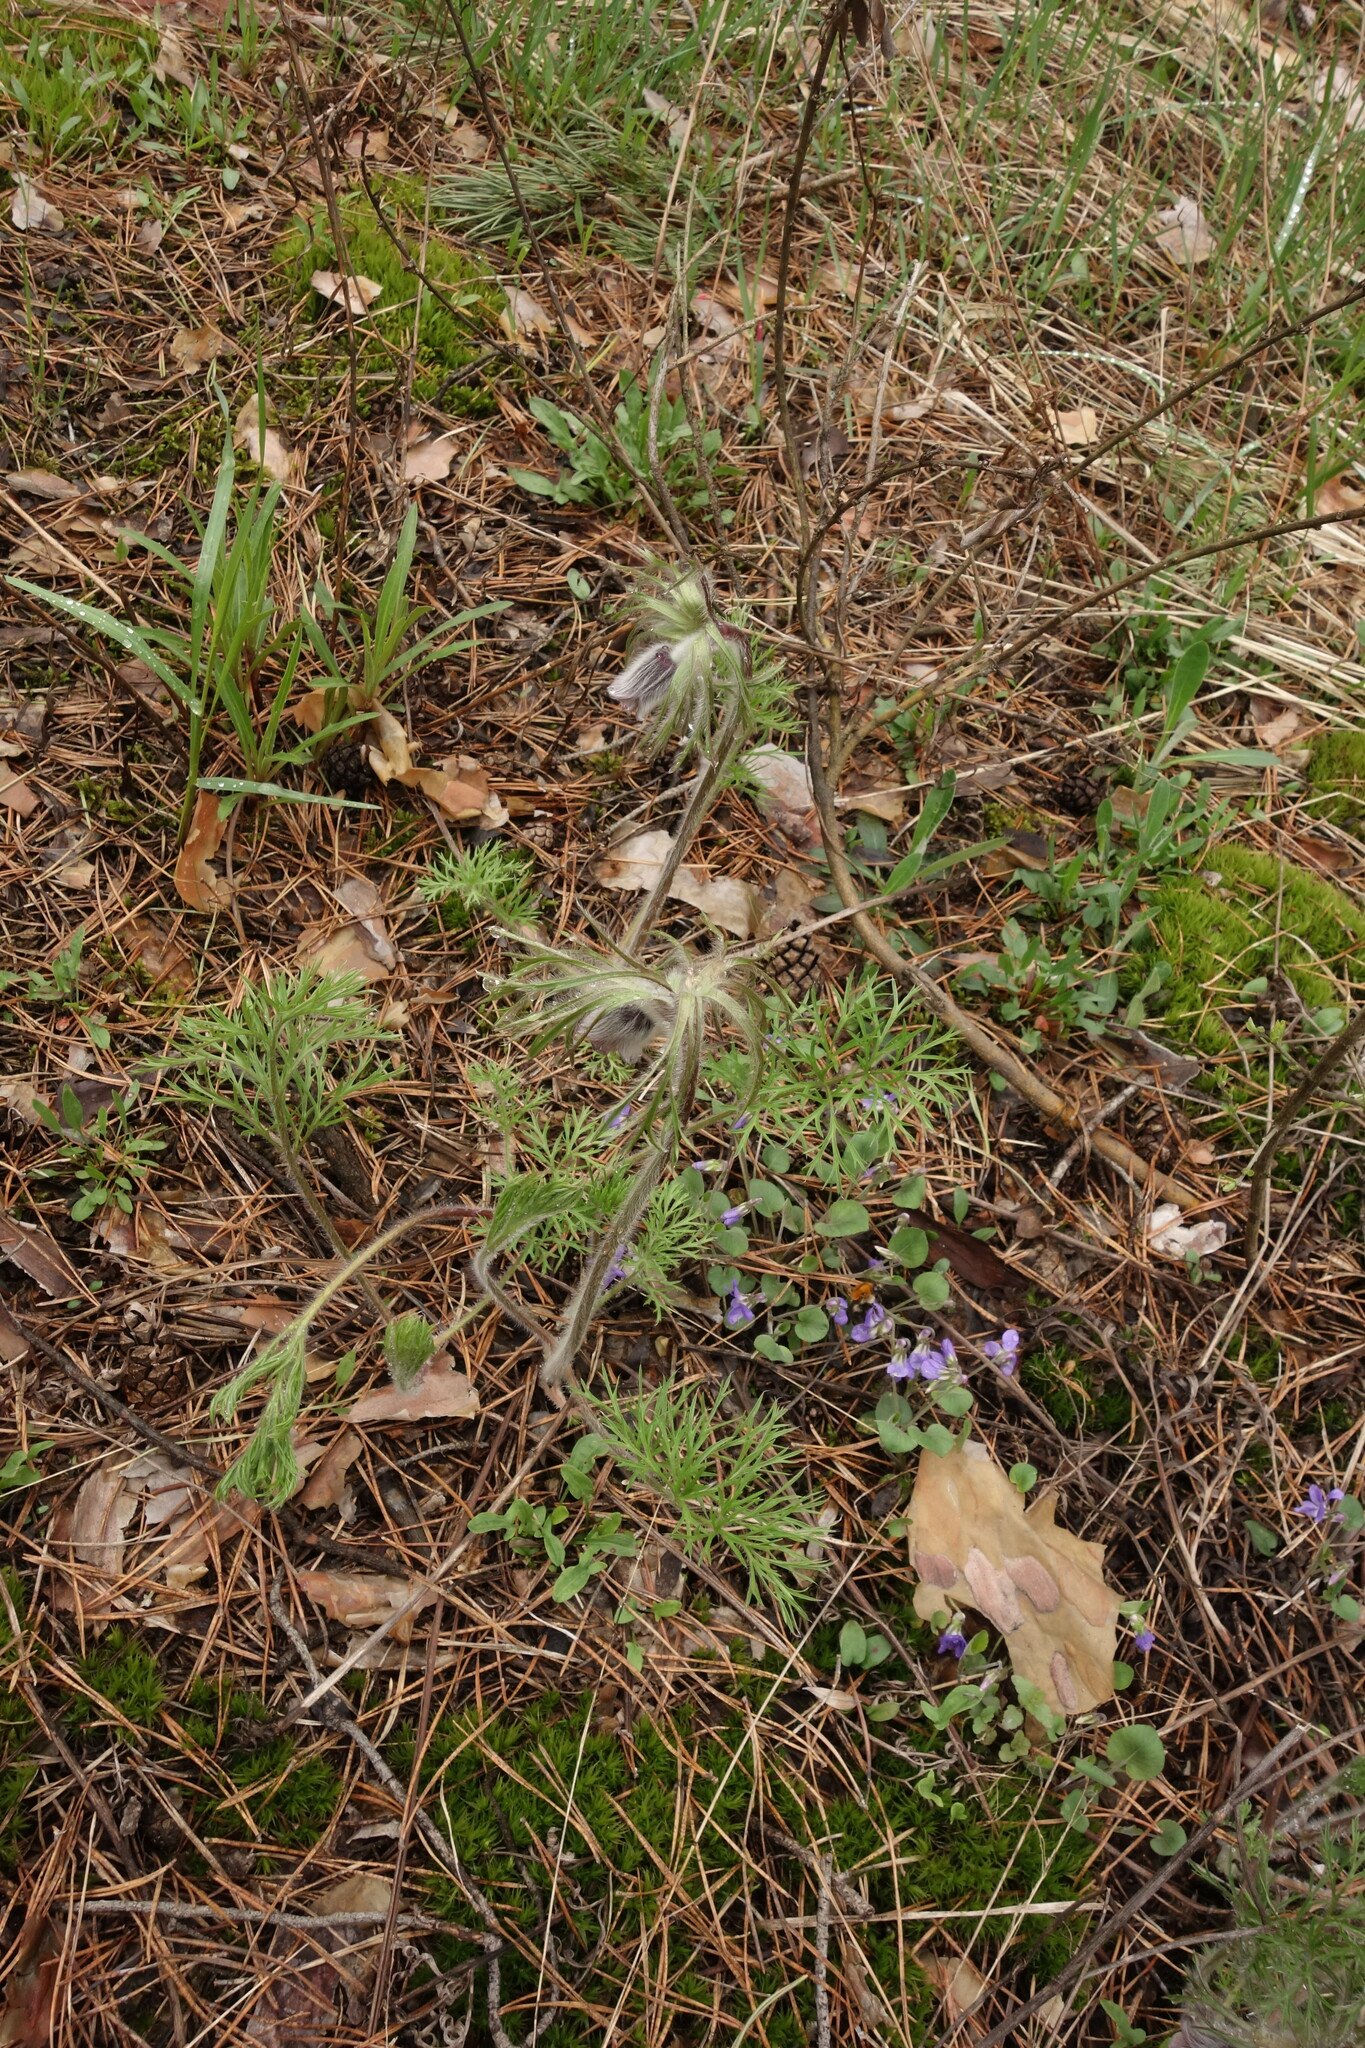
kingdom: Plantae
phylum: Tracheophyta
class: Magnoliopsida
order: Ranunculales
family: Ranunculaceae
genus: Pulsatilla
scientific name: Pulsatilla pratensis
